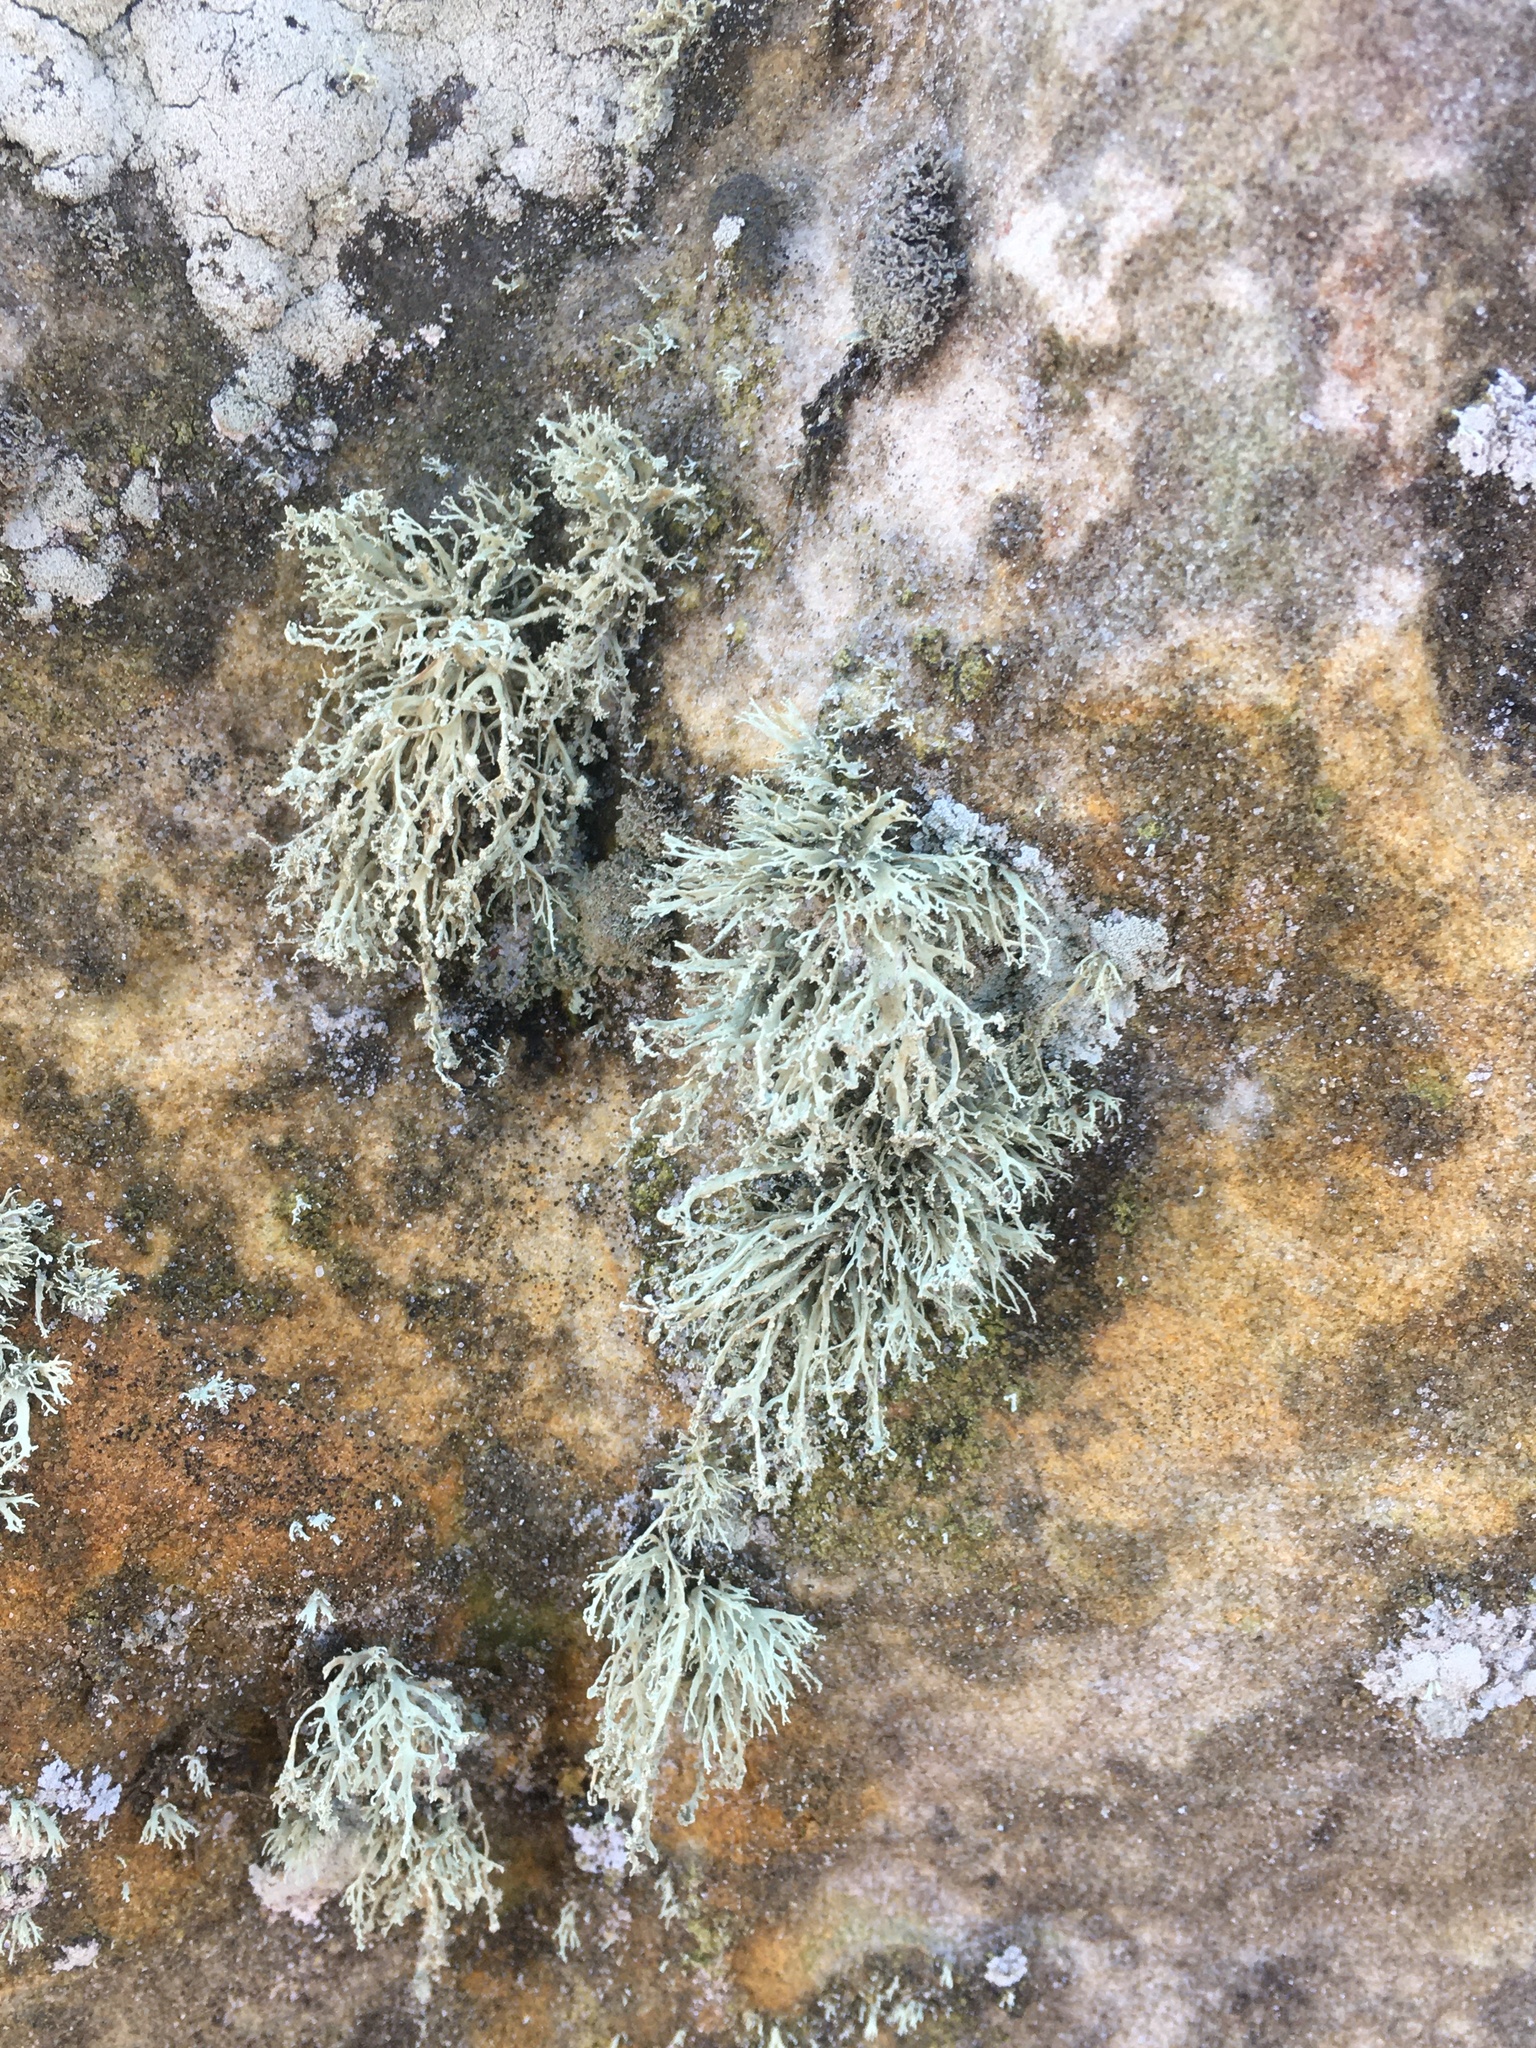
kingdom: Fungi
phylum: Ascomycota
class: Lecanoromycetes
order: Lecanorales
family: Ramalinaceae
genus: Ramalina
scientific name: Ramalina intermedia
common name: Rock bushy lichen
